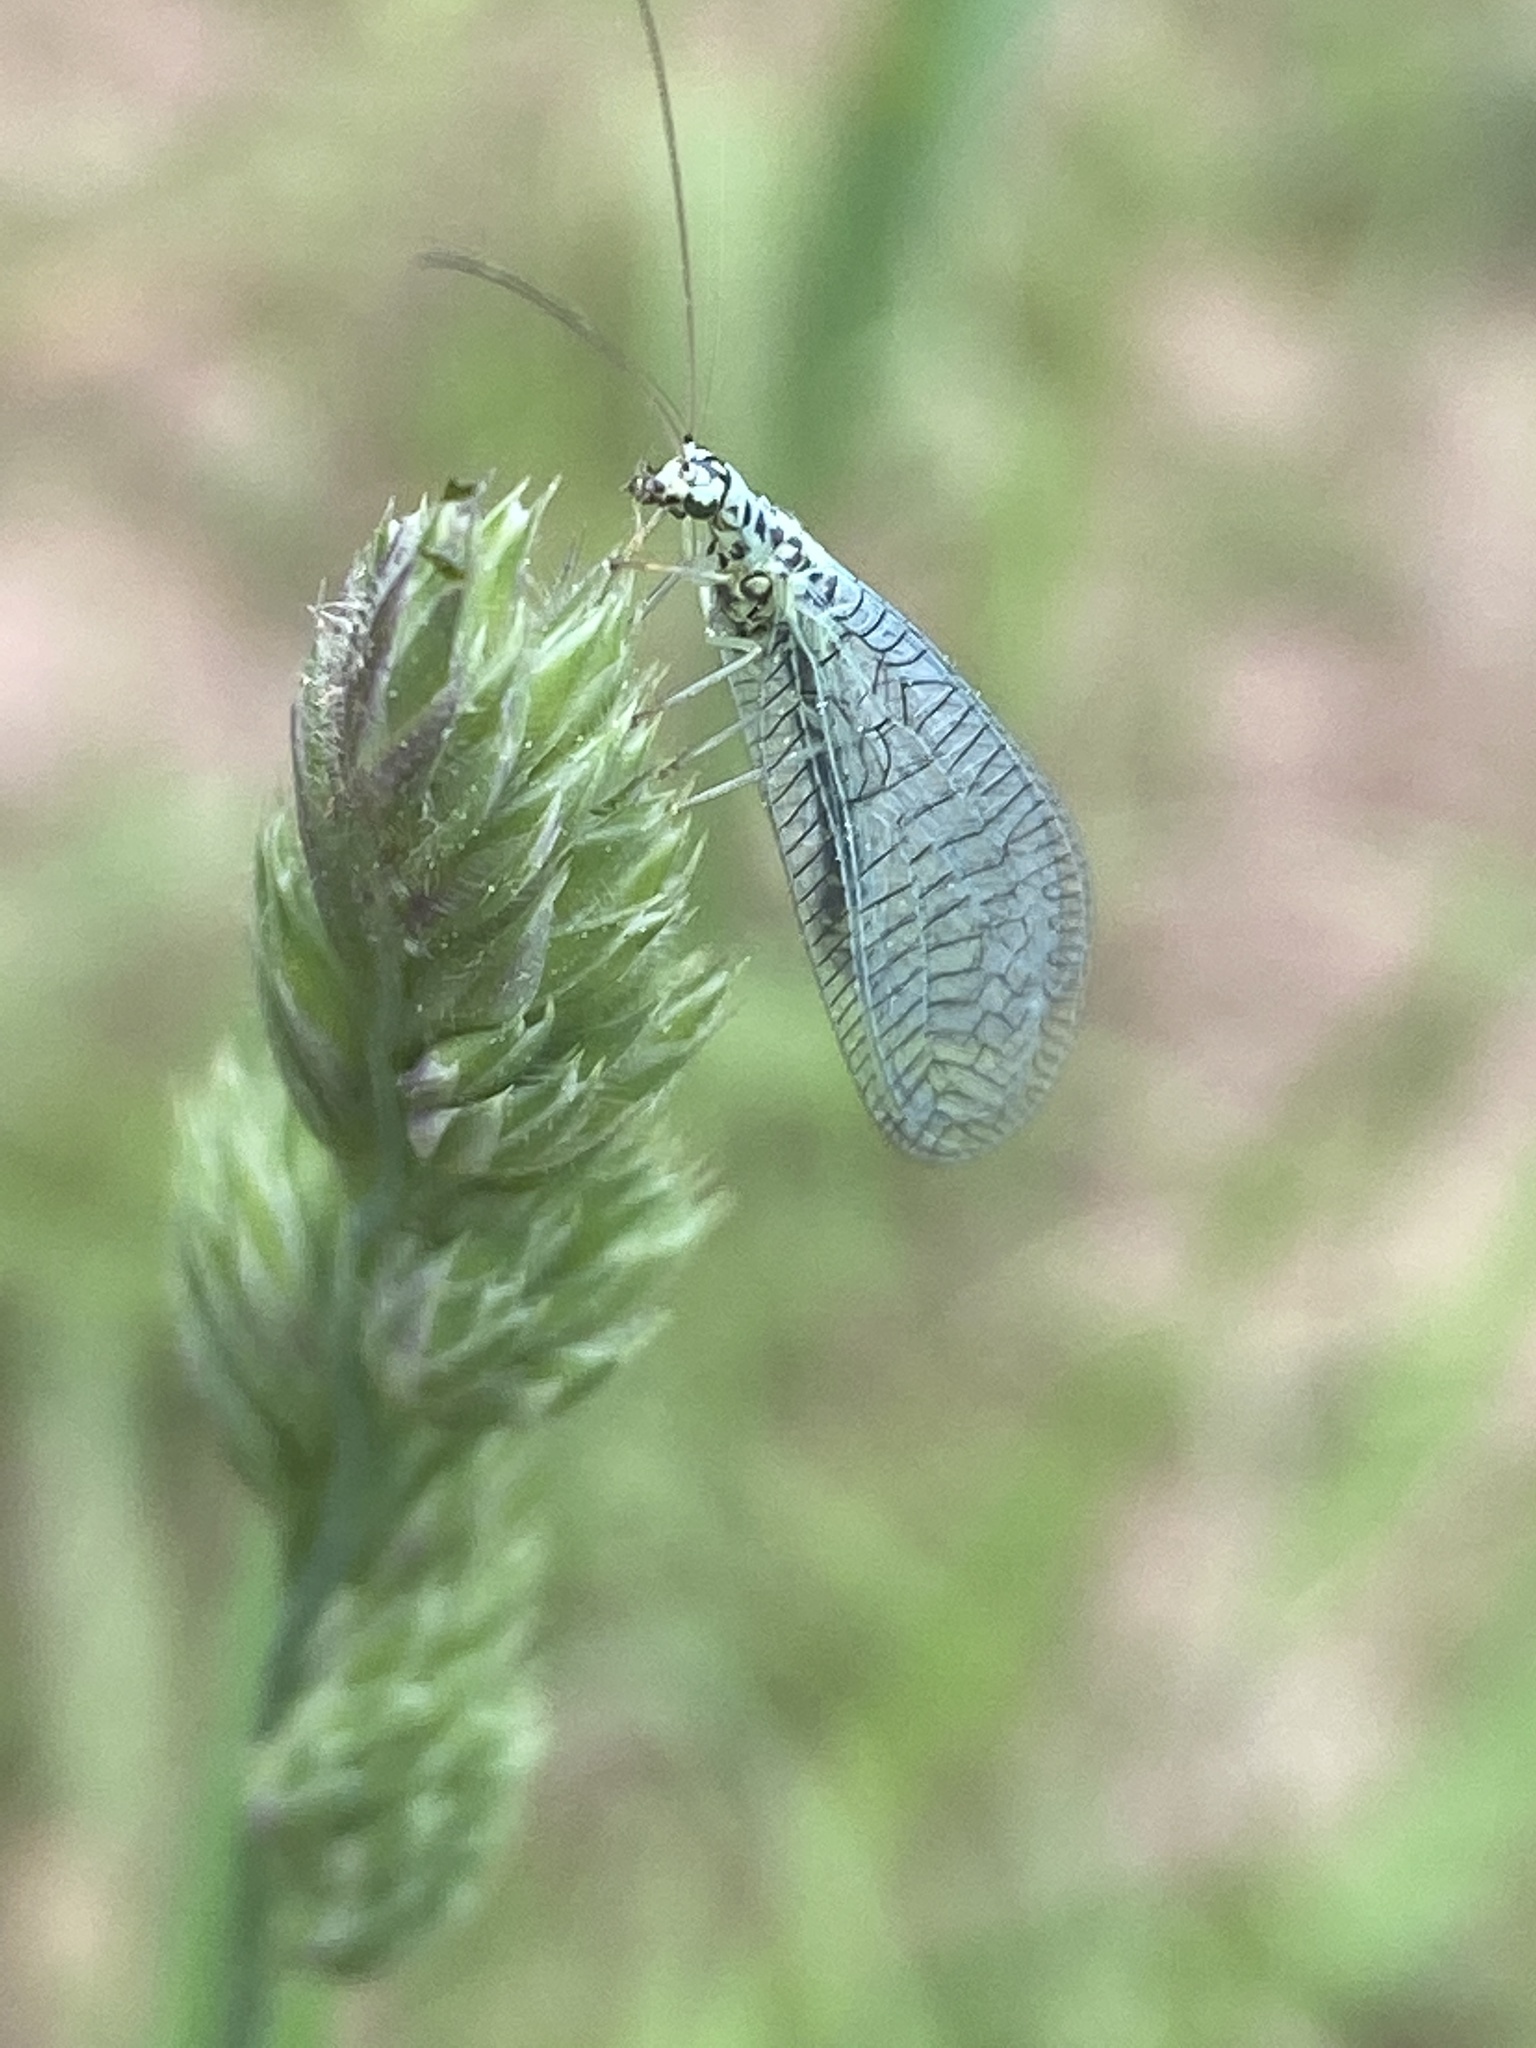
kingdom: Animalia
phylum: Arthropoda
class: Insecta
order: Neuroptera
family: Chrysopidae
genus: Chrysopa
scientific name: Chrysopa perla
